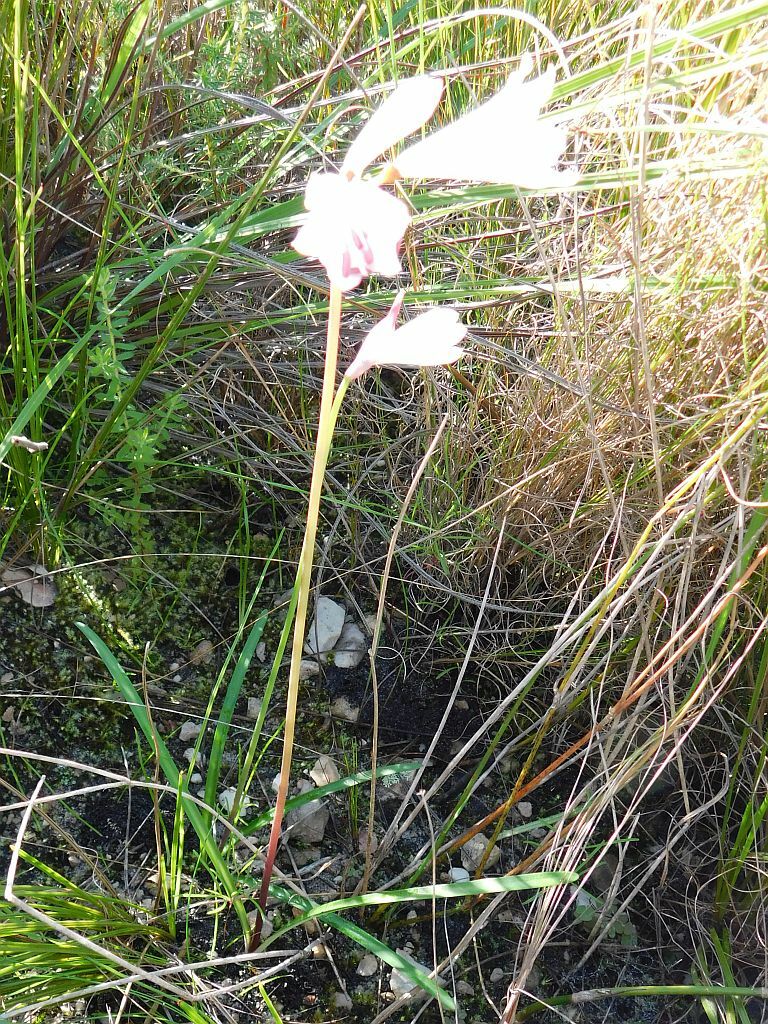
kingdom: Plantae
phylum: Tracheophyta
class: Liliopsida
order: Asparagales
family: Amaryllidaceae
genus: Nerine
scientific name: Nerine pudica
